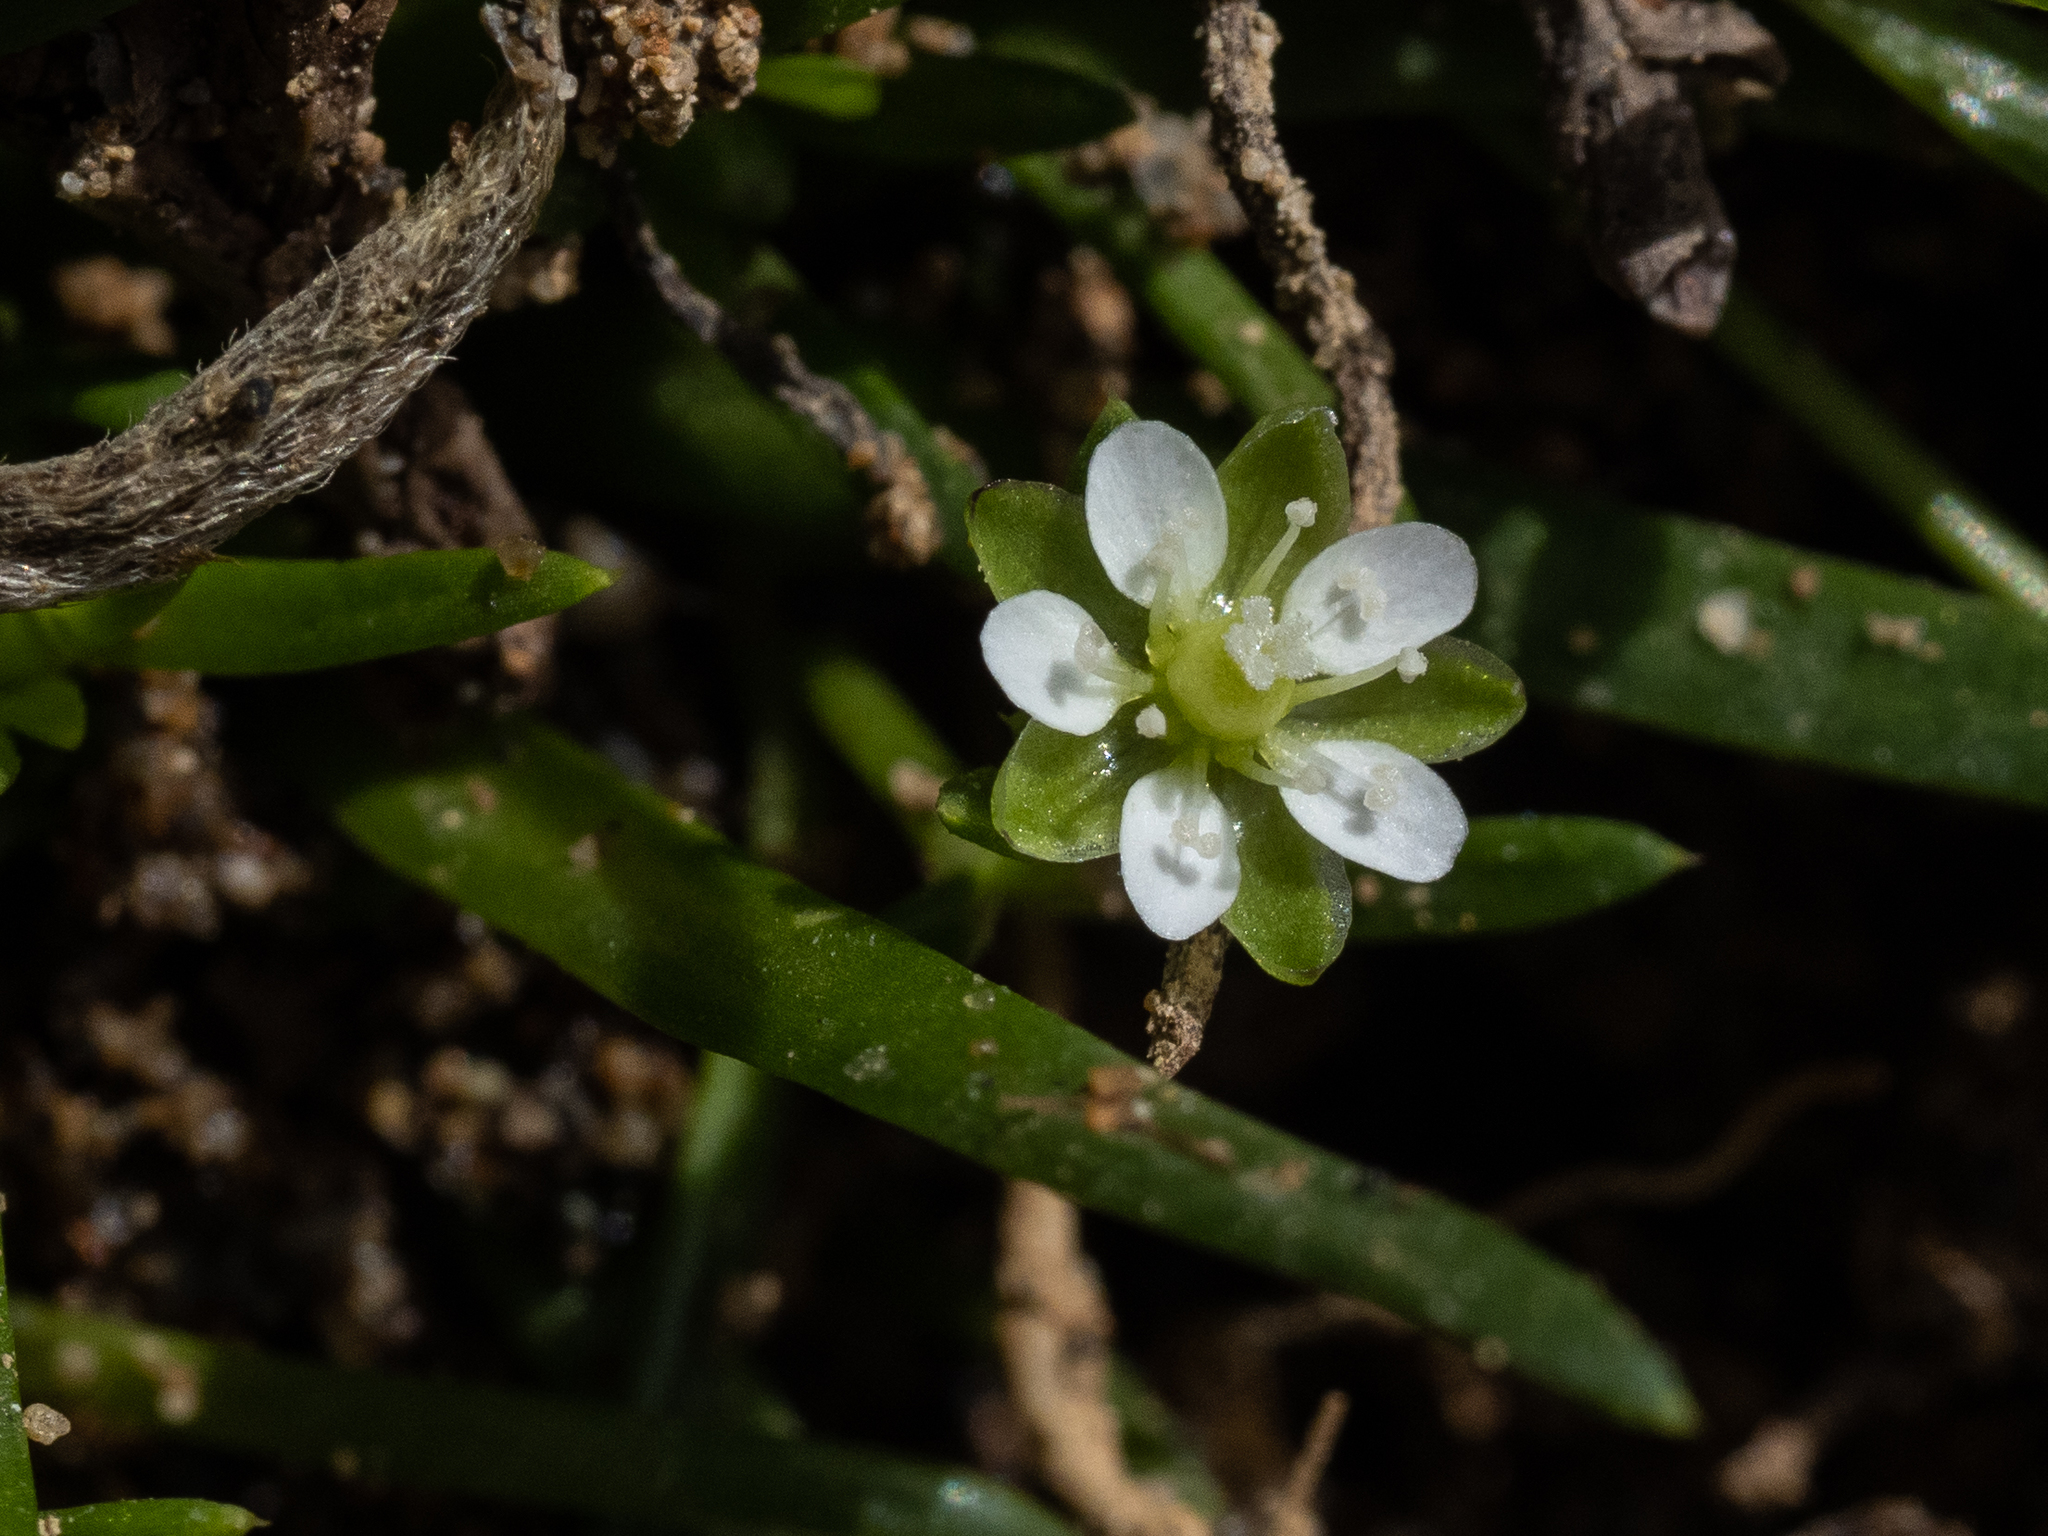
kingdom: Plantae
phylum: Tracheophyta
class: Magnoliopsida
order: Caryophyllales
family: Caryophyllaceae
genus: Sagina
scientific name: Sagina maxima
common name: Coastal pearlwort
